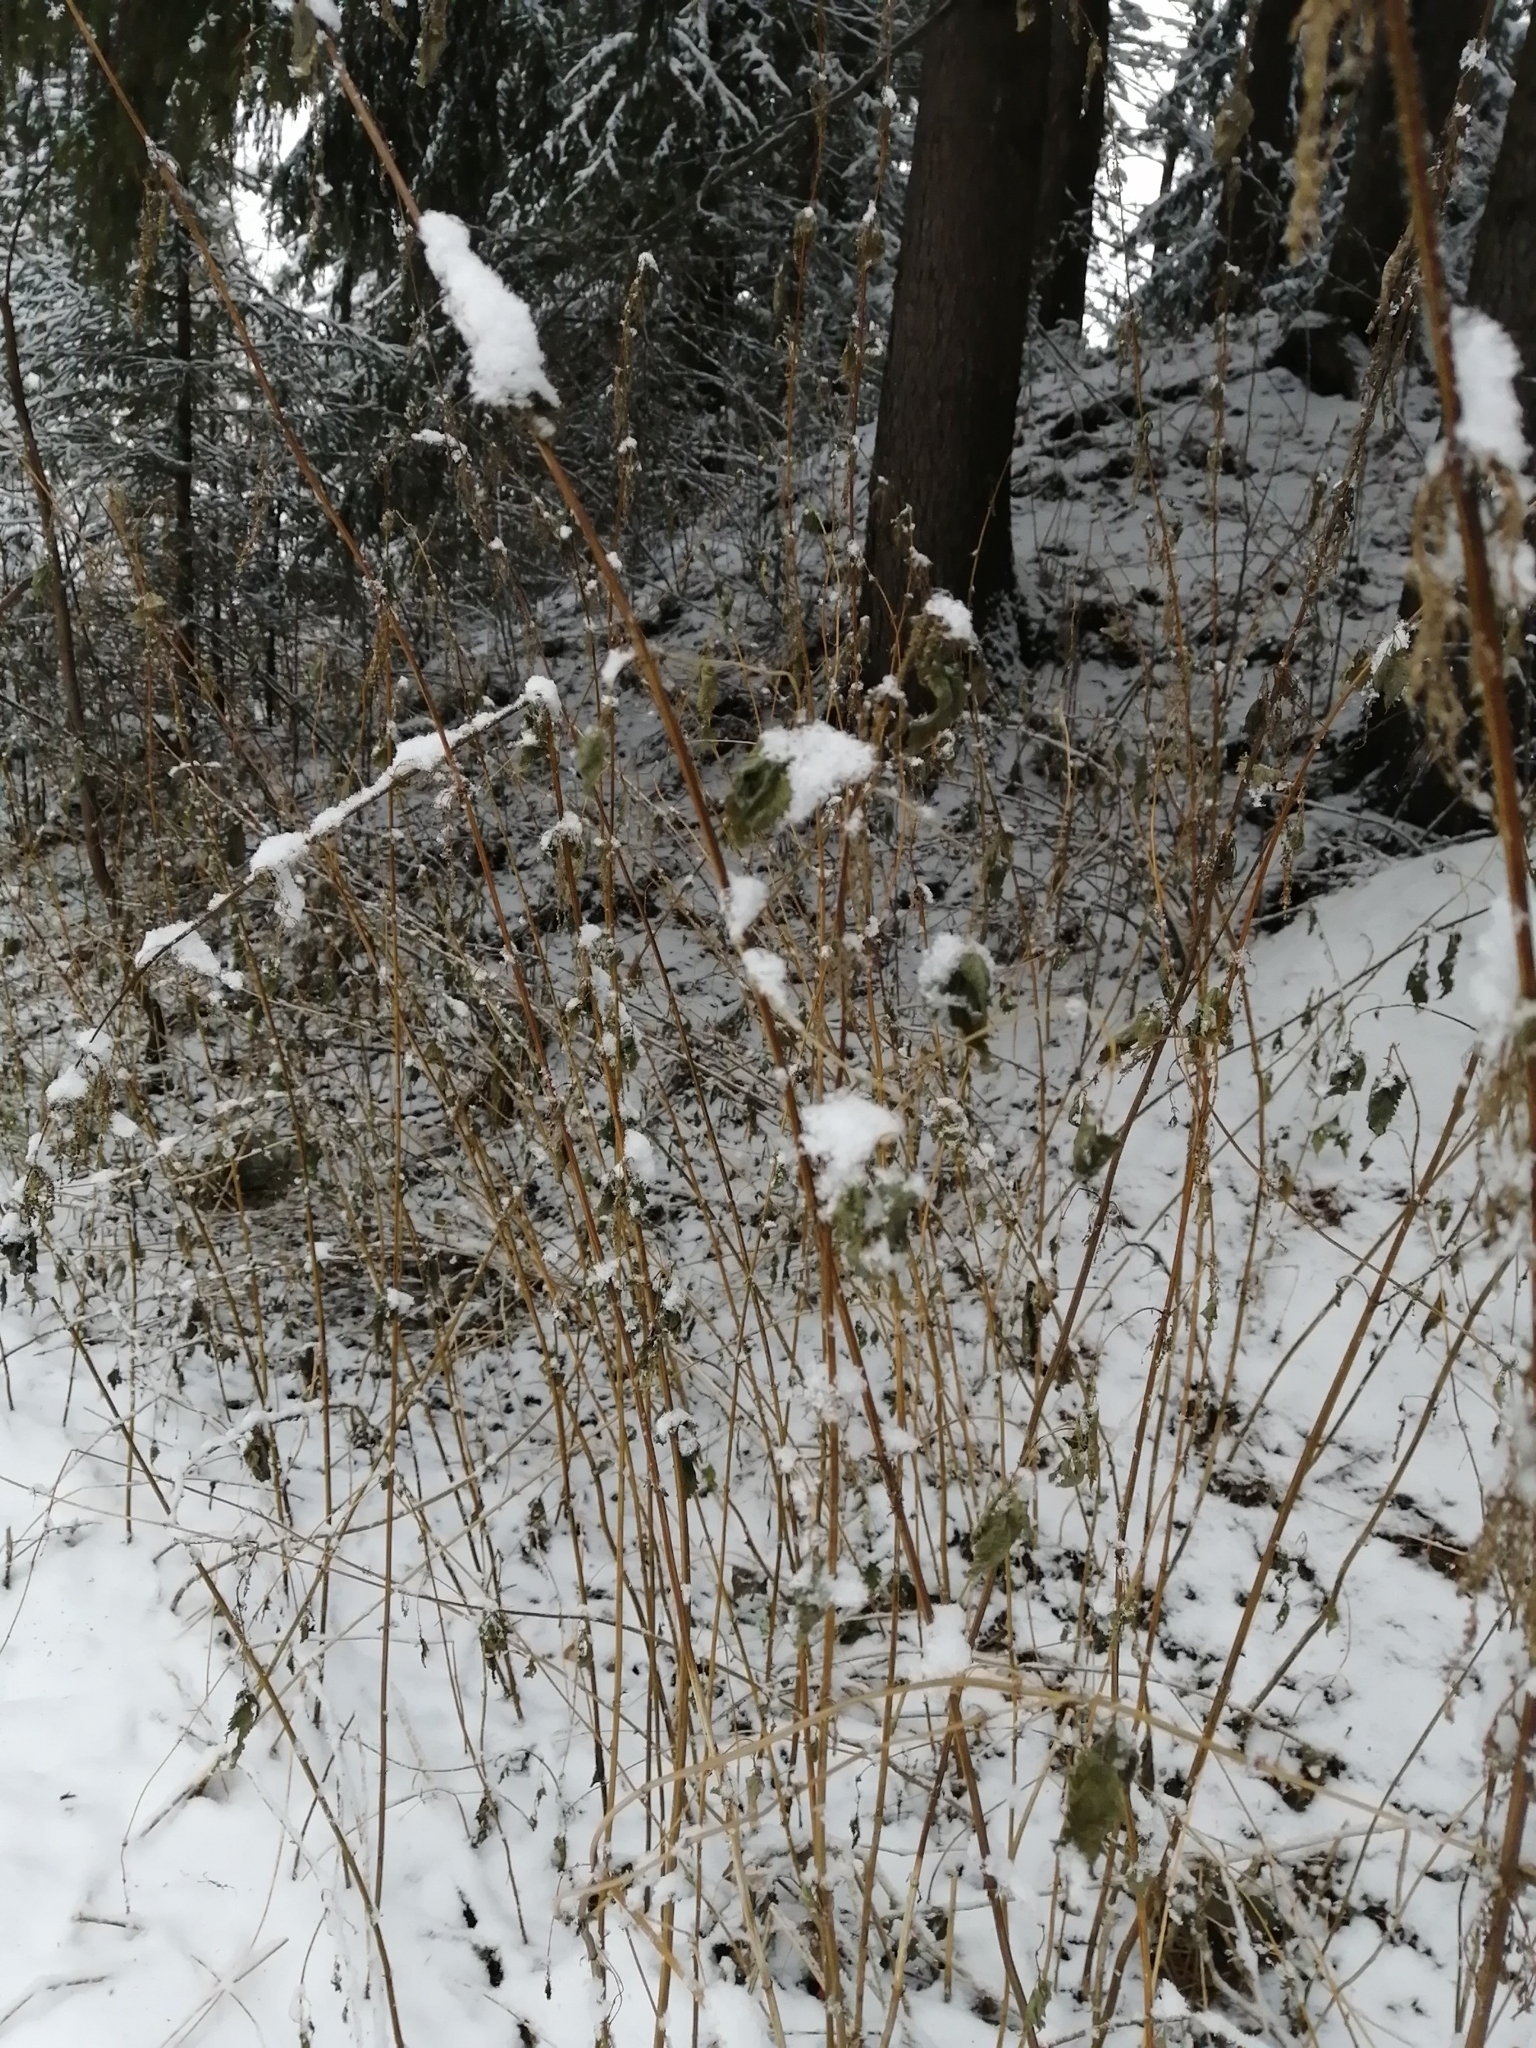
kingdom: Plantae
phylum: Tracheophyta
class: Magnoliopsida
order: Rosales
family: Urticaceae
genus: Urtica
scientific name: Urtica dioica
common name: Common nettle
